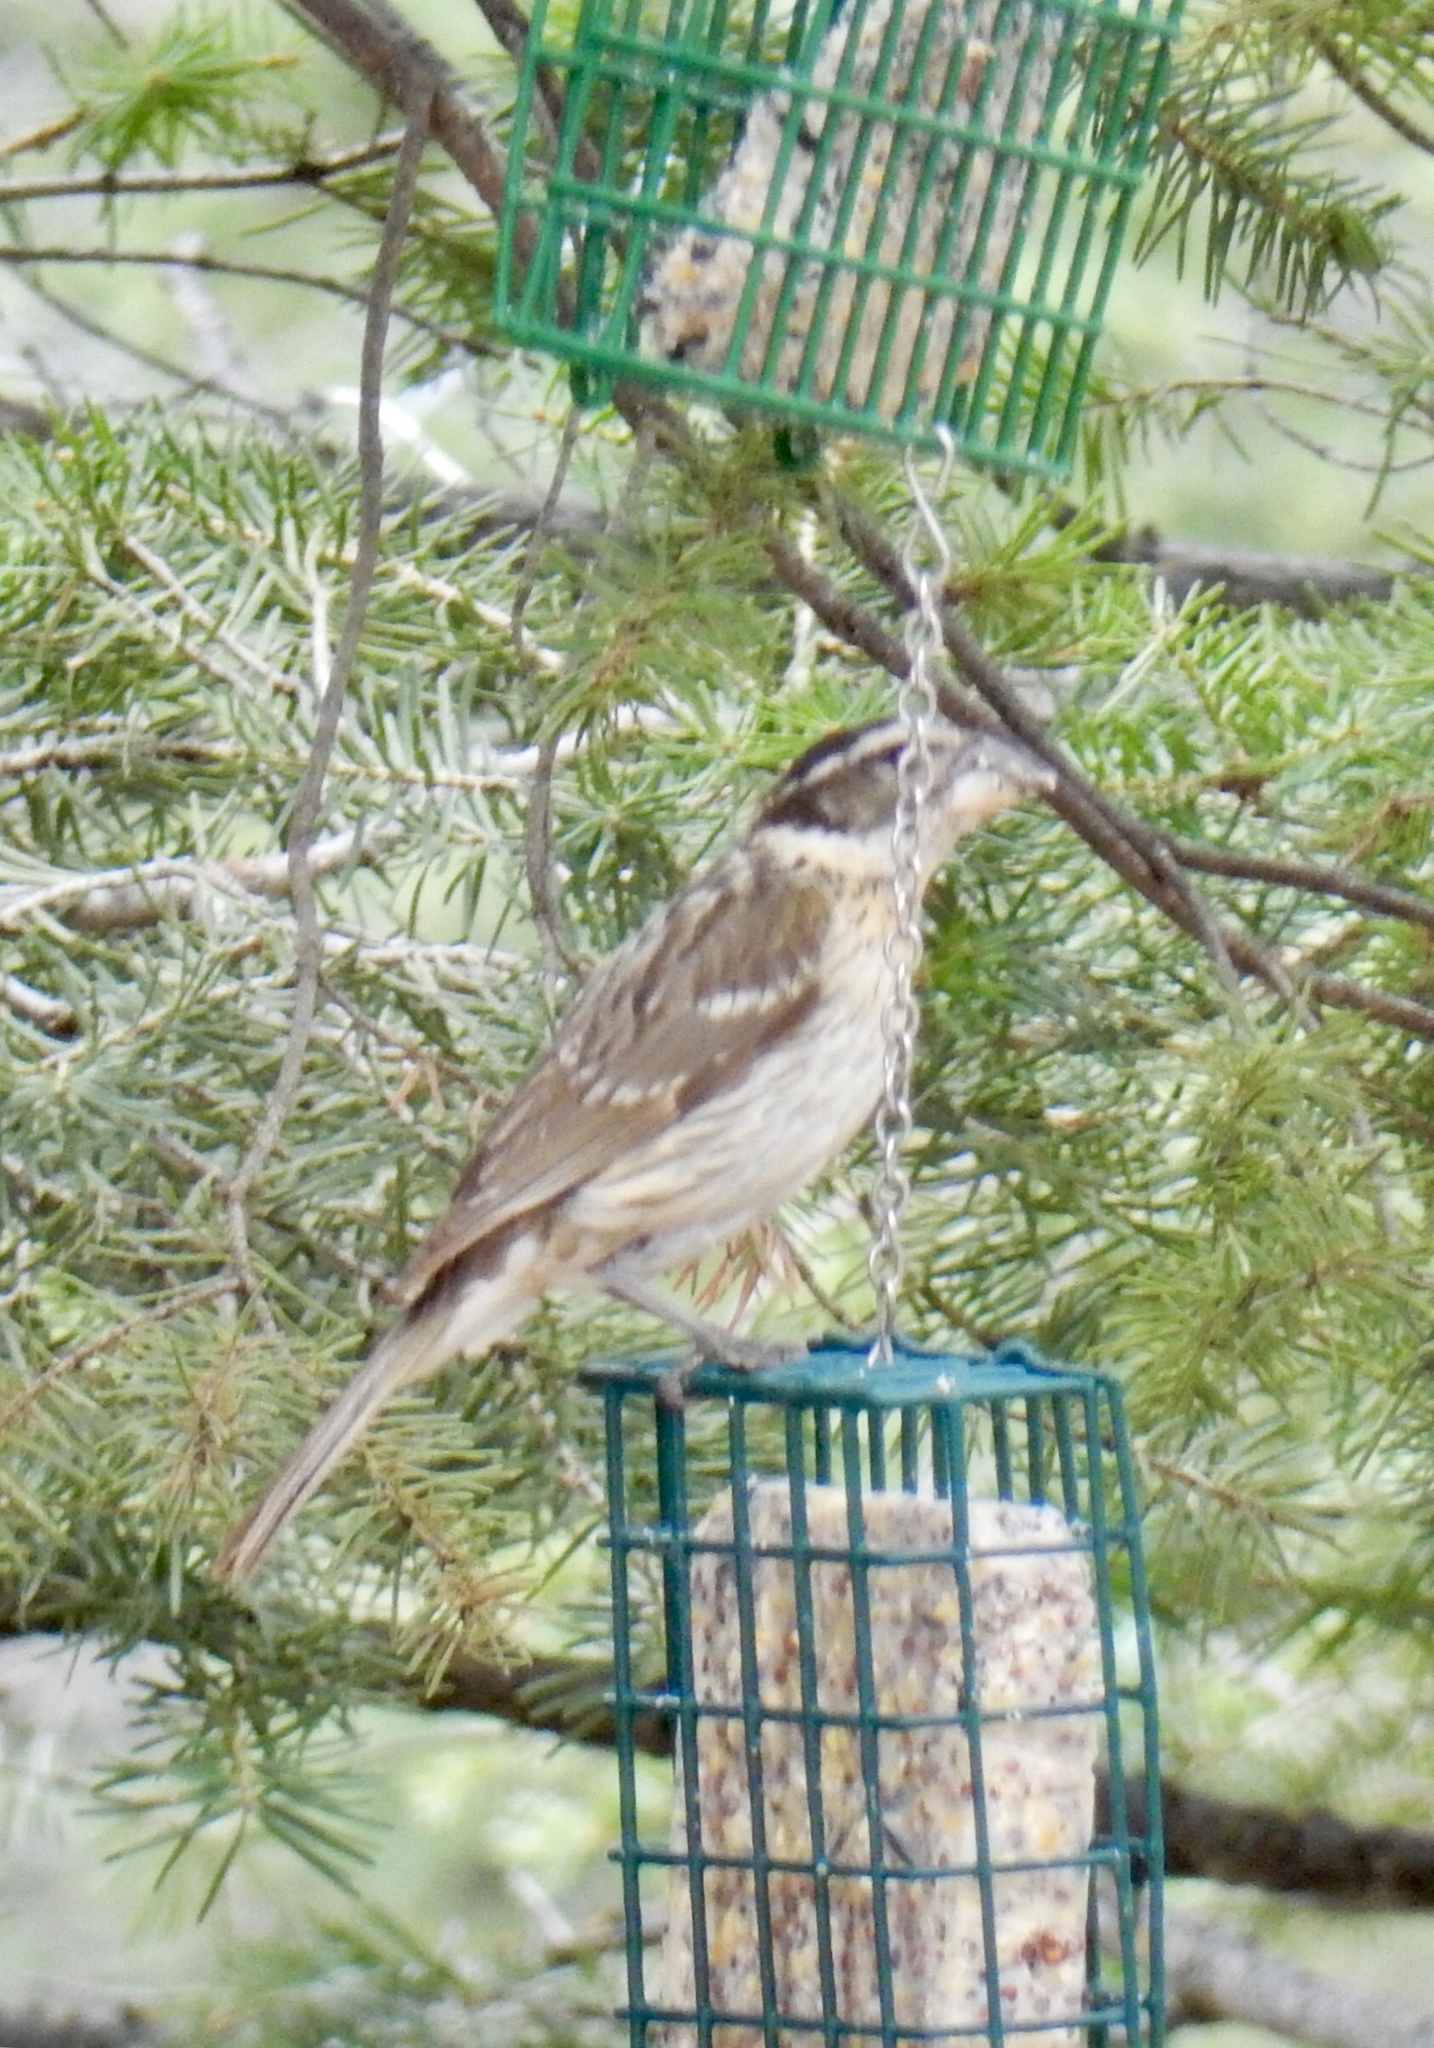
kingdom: Animalia
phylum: Chordata
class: Aves
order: Passeriformes
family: Cardinalidae
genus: Pheucticus
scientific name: Pheucticus melanocephalus
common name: Black-headed grosbeak
